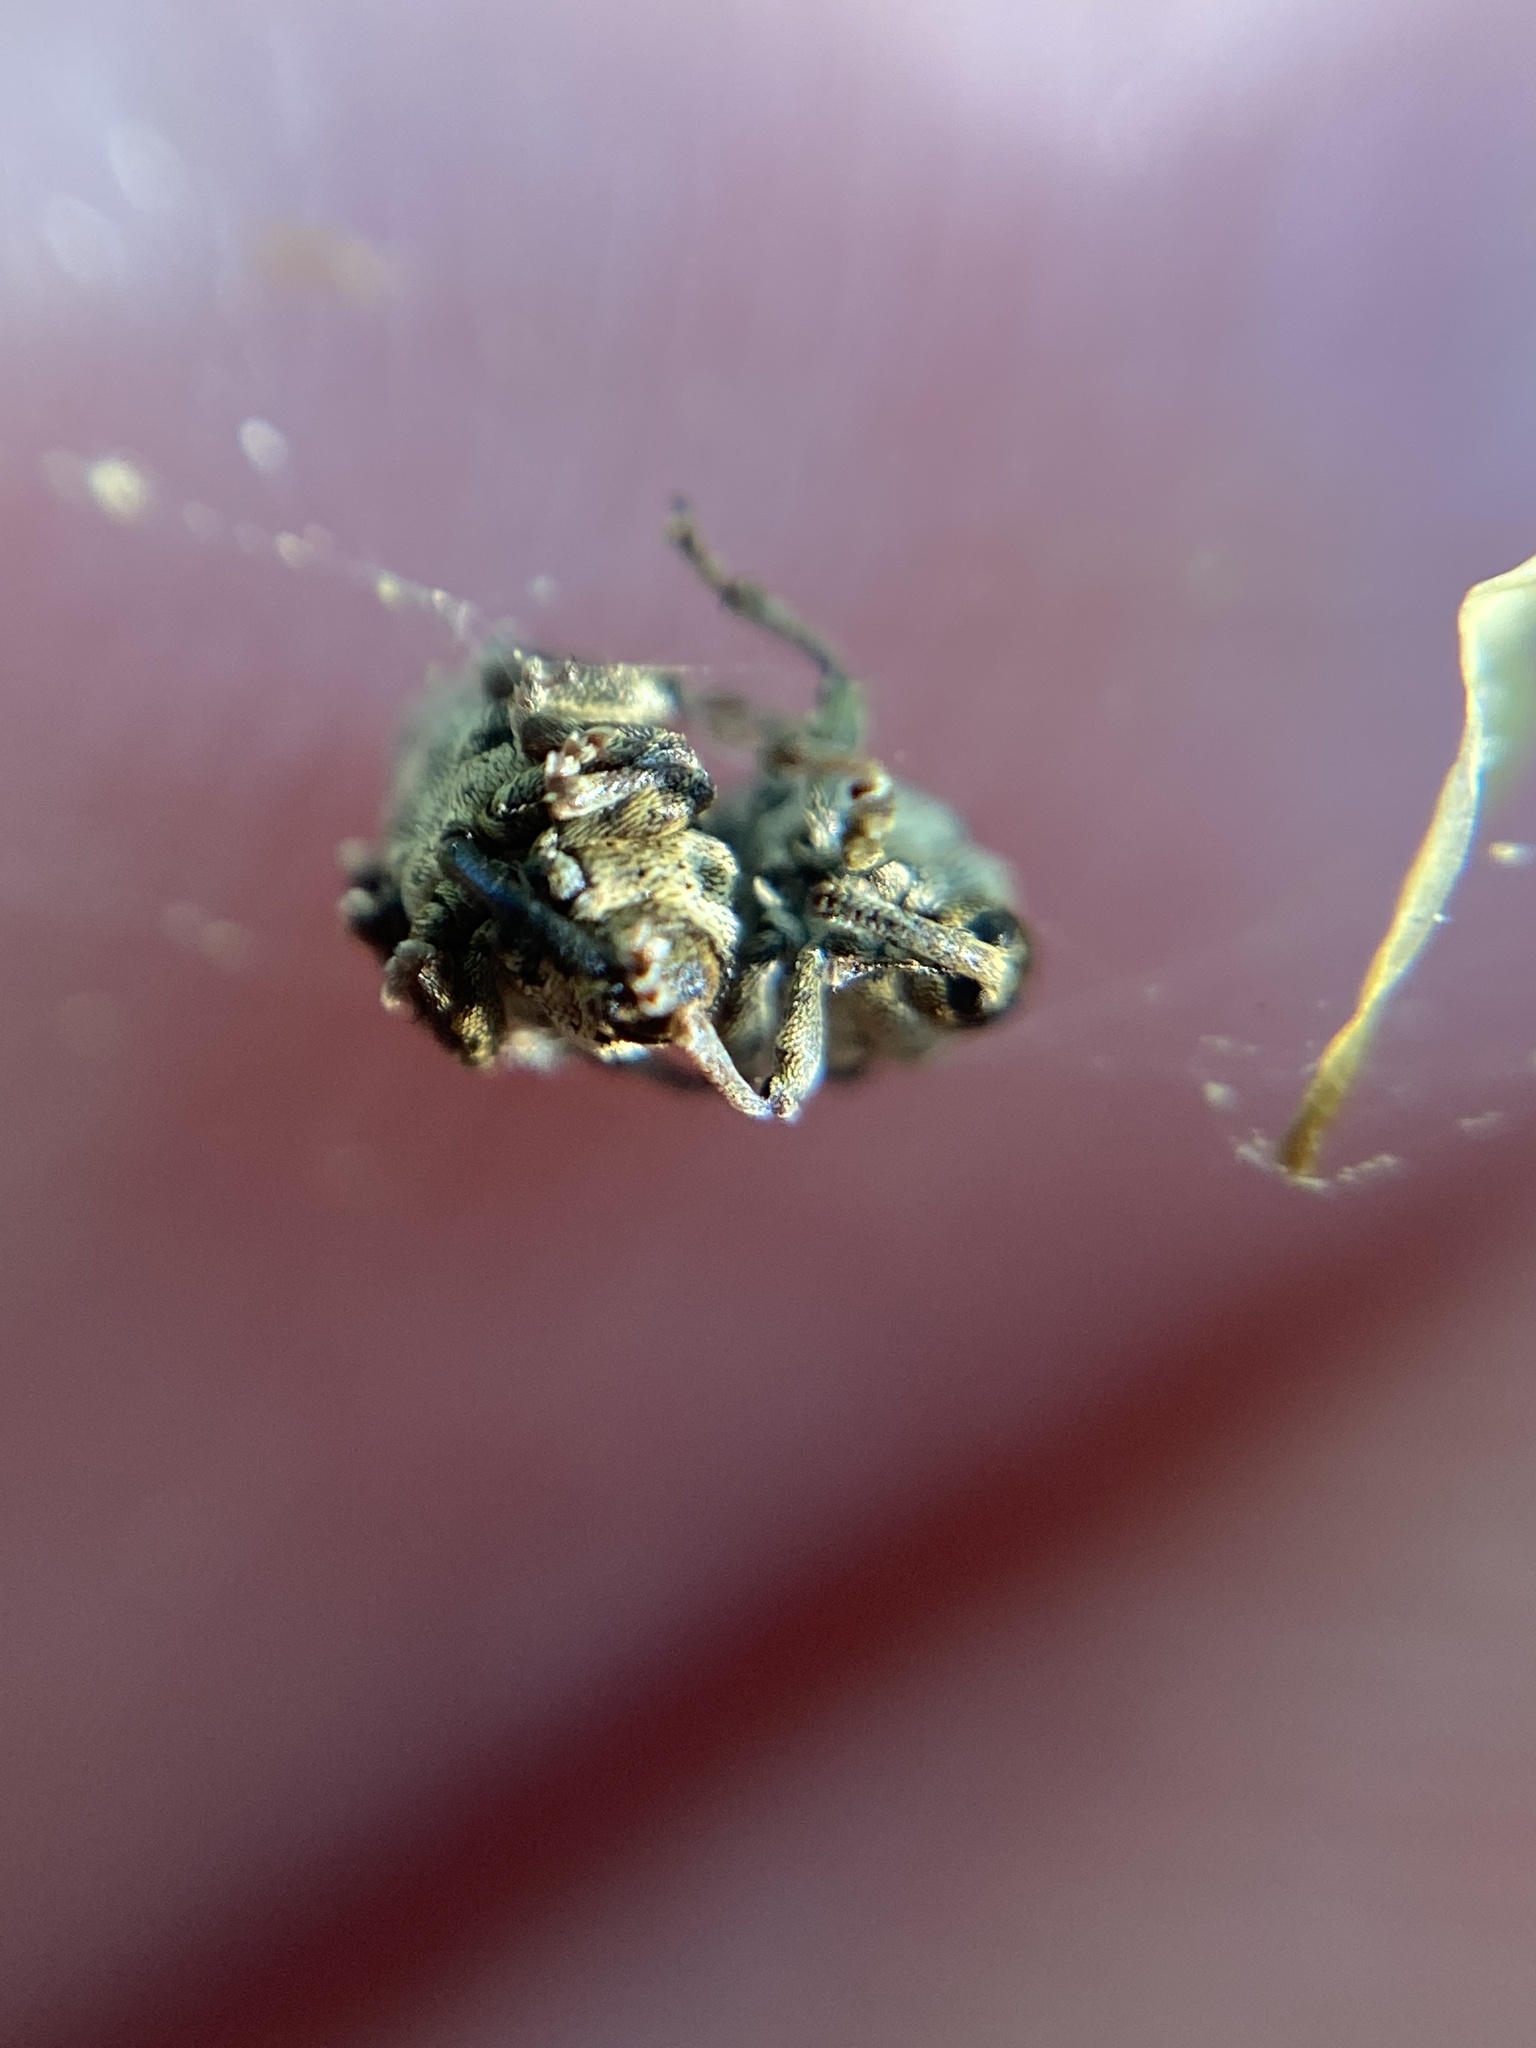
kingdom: Animalia
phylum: Arthropoda
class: Insecta
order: Coleoptera
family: Curculionidae
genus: Nedyus
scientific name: Nedyus quadrimaculatus
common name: Small nettle weevil
